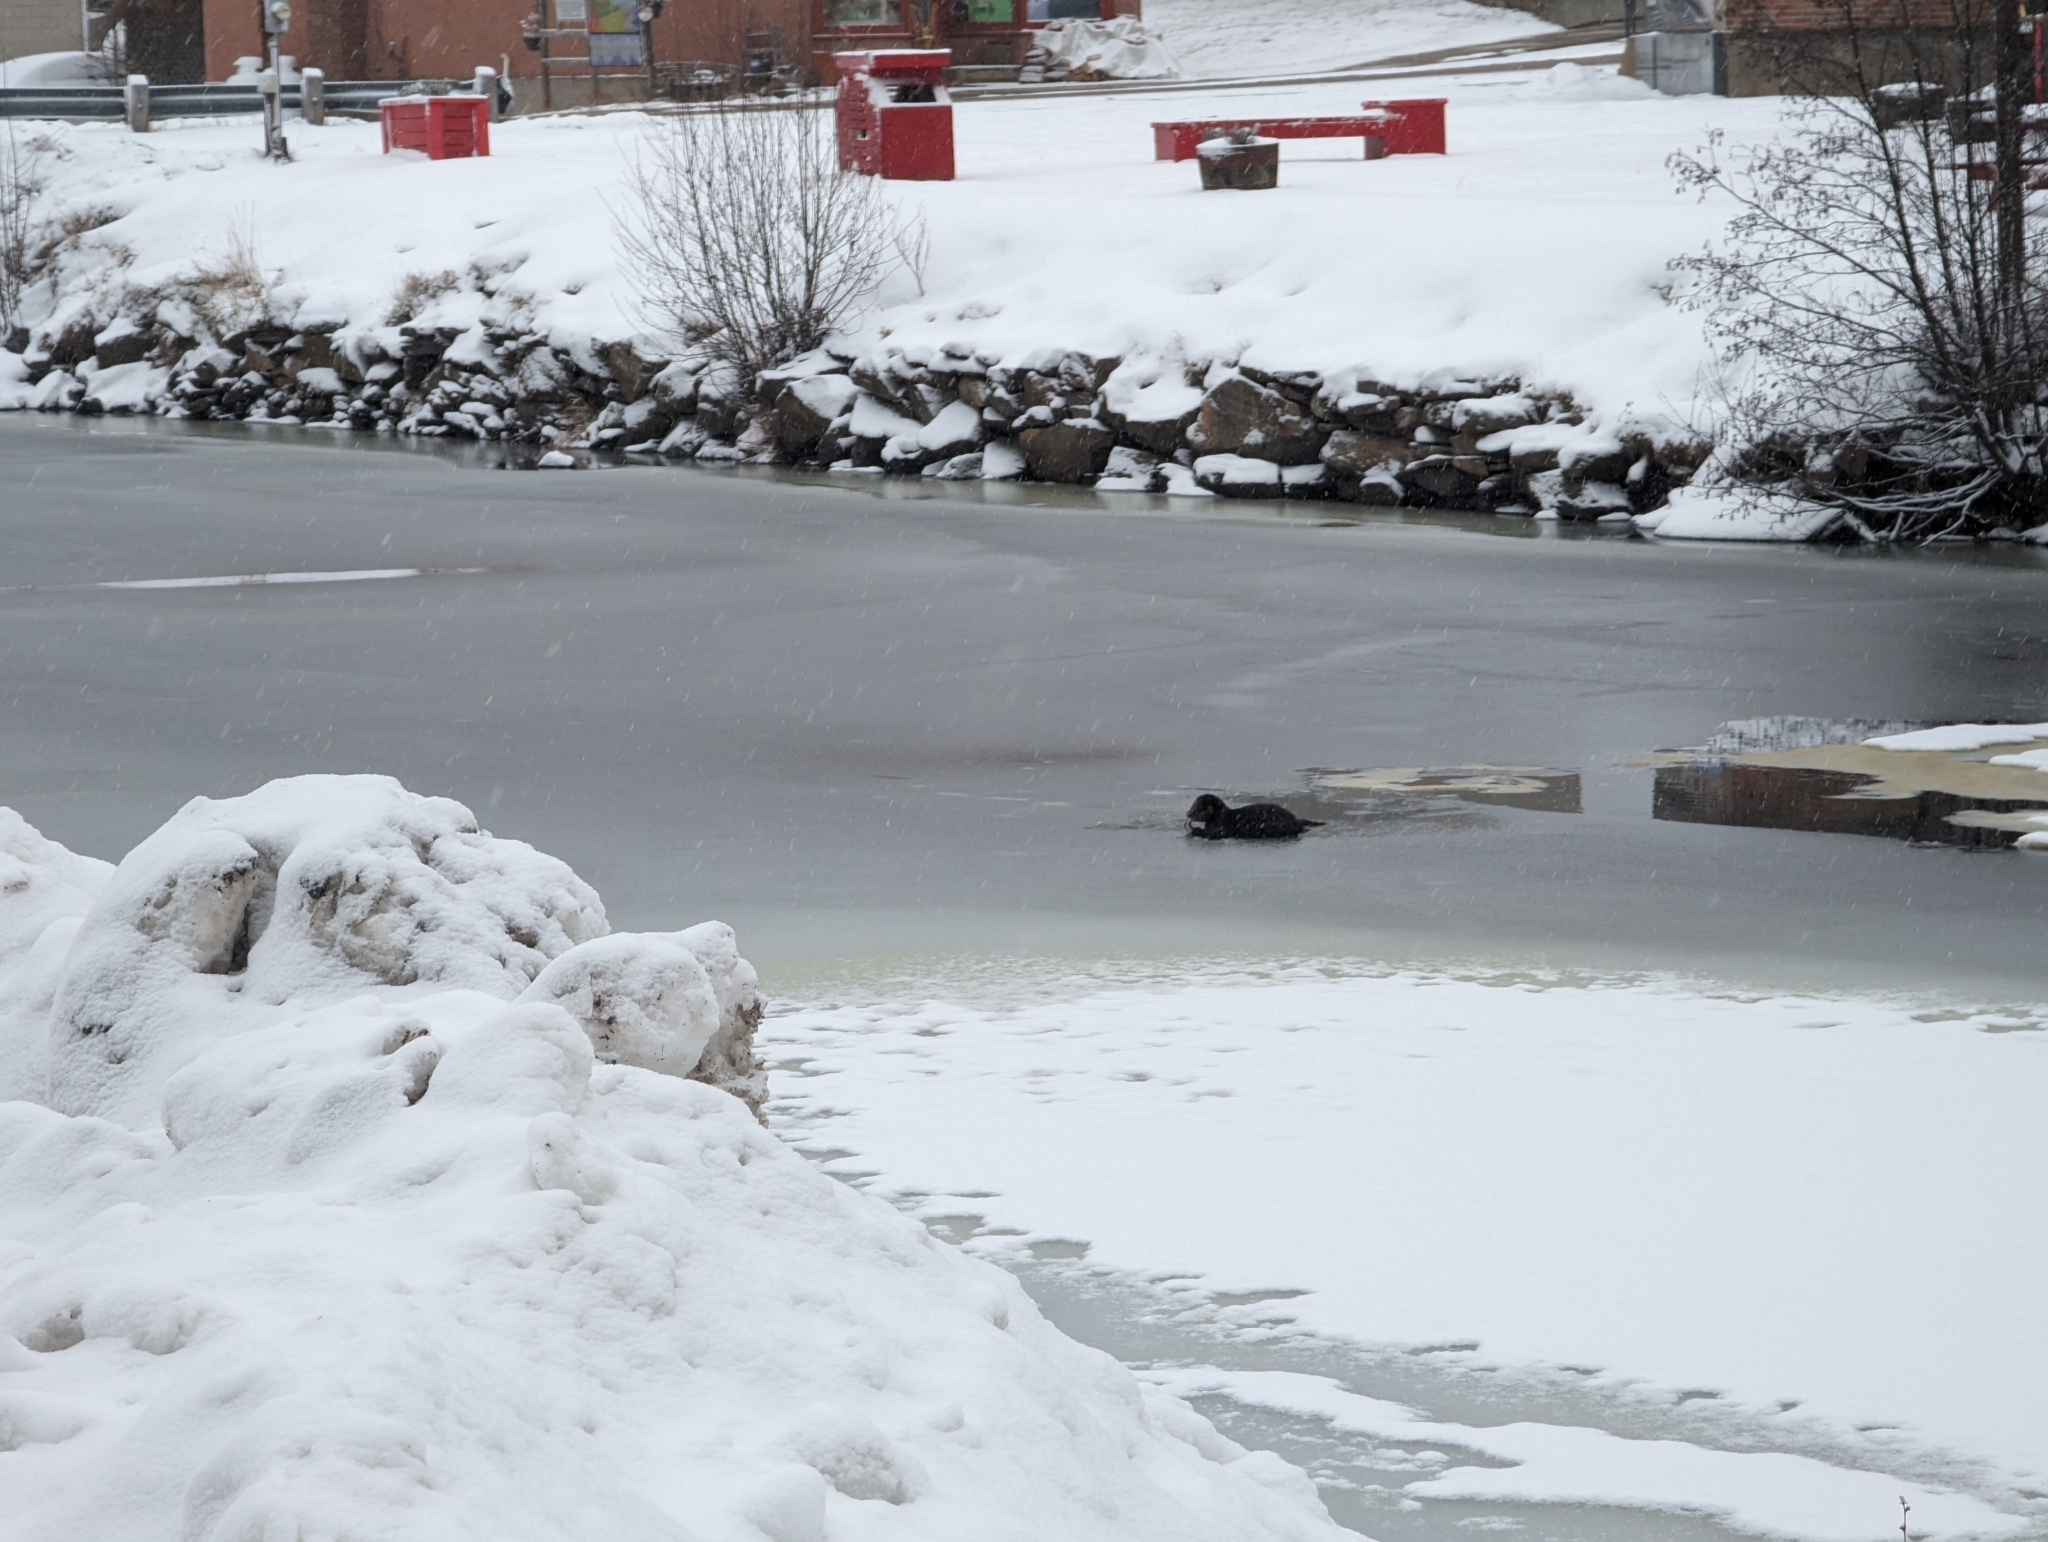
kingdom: Animalia
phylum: Chordata
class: Mammalia
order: Carnivora
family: Mustelidae
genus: Lontra
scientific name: Lontra canadensis
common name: North american river otter
